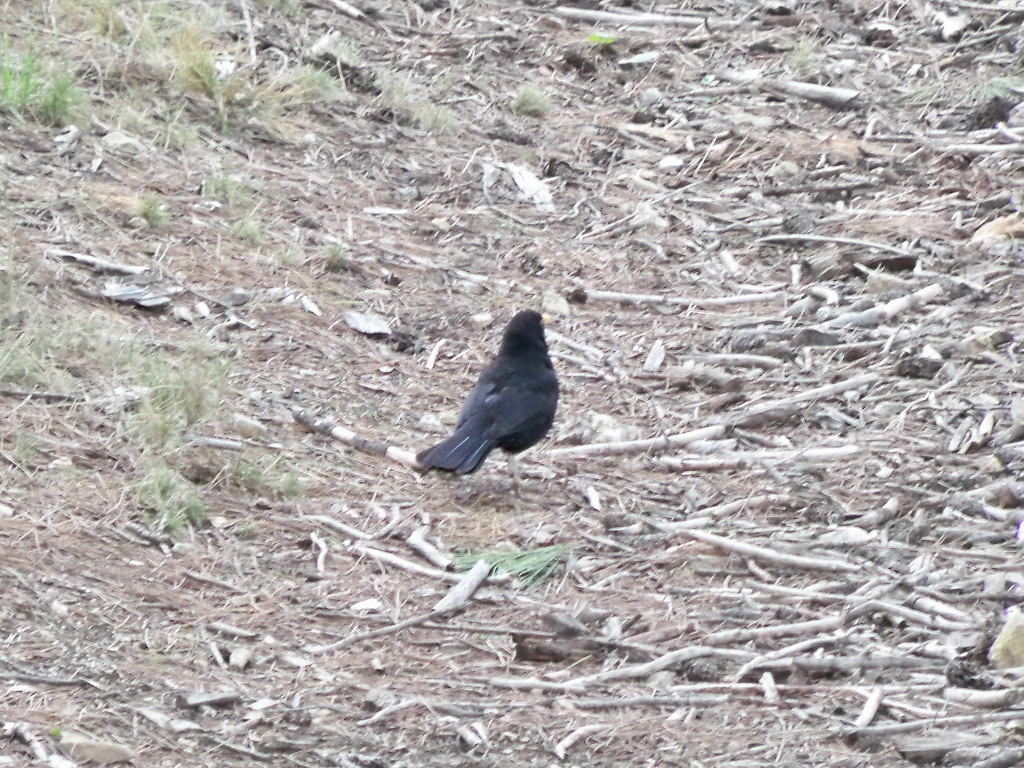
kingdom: Animalia
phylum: Chordata
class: Aves
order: Passeriformes
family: Turdidae
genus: Turdus
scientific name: Turdus merula
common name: Common blackbird
